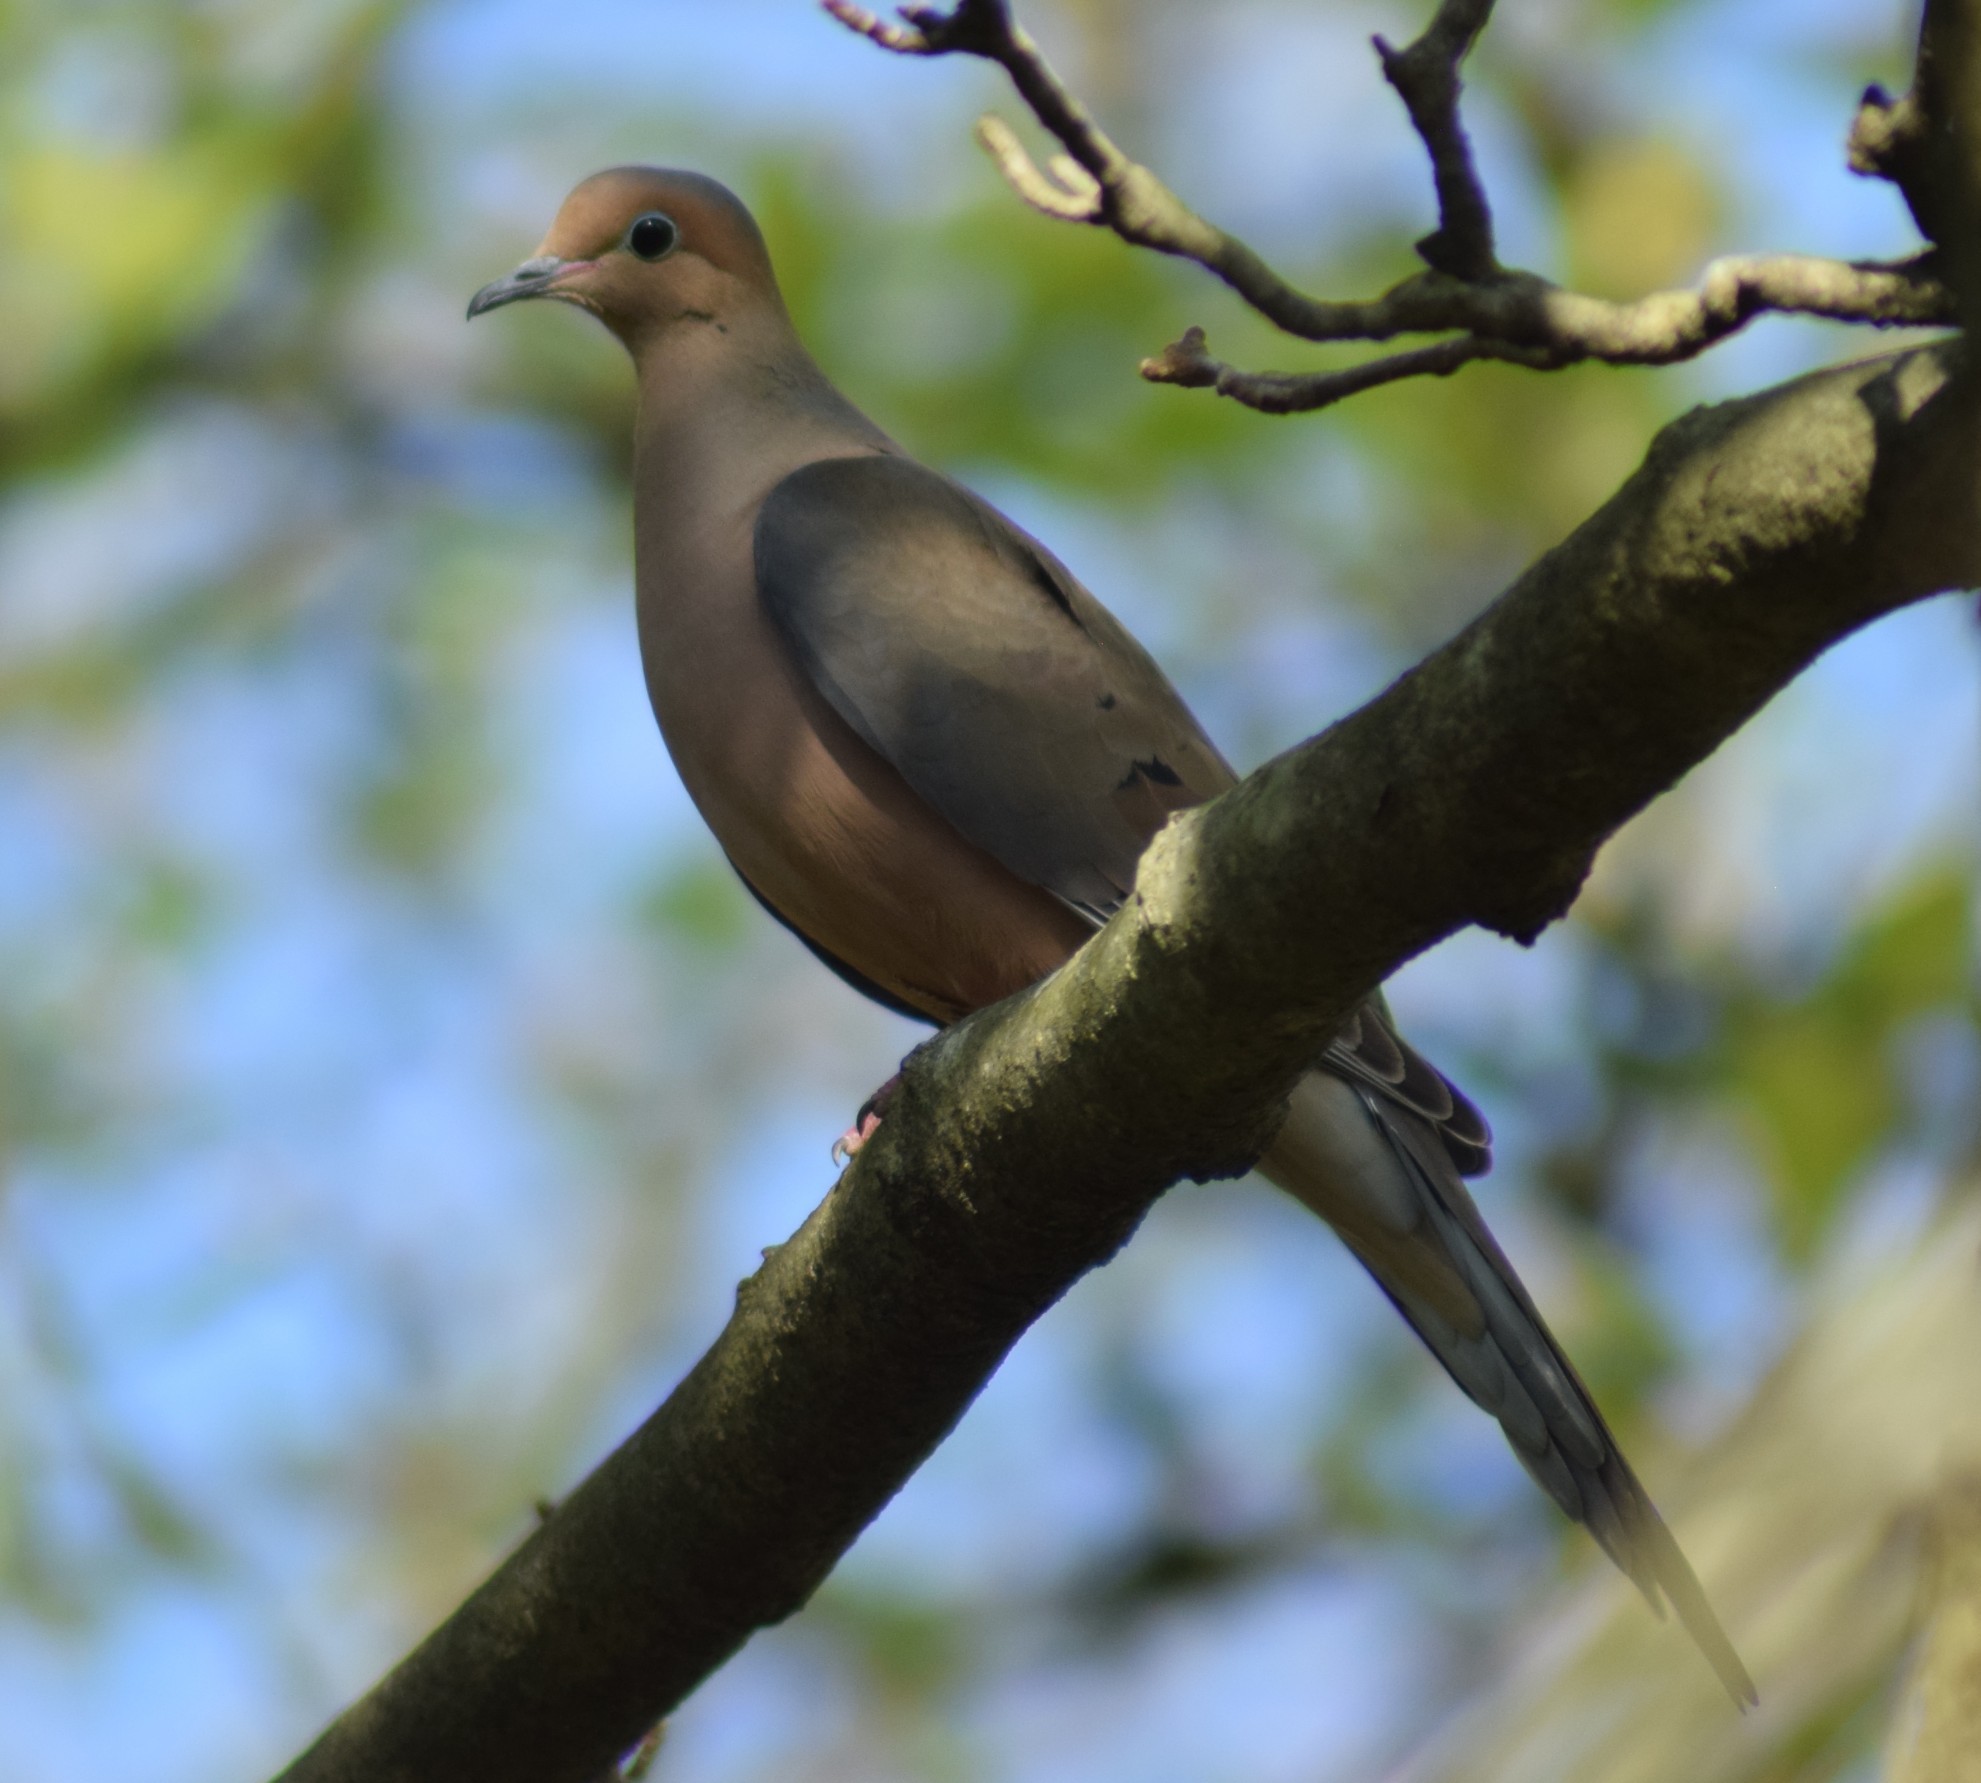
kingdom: Animalia
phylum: Chordata
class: Aves
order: Columbiformes
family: Columbidae
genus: Zenaida
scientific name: Zenaida macroura
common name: Mourning dove
